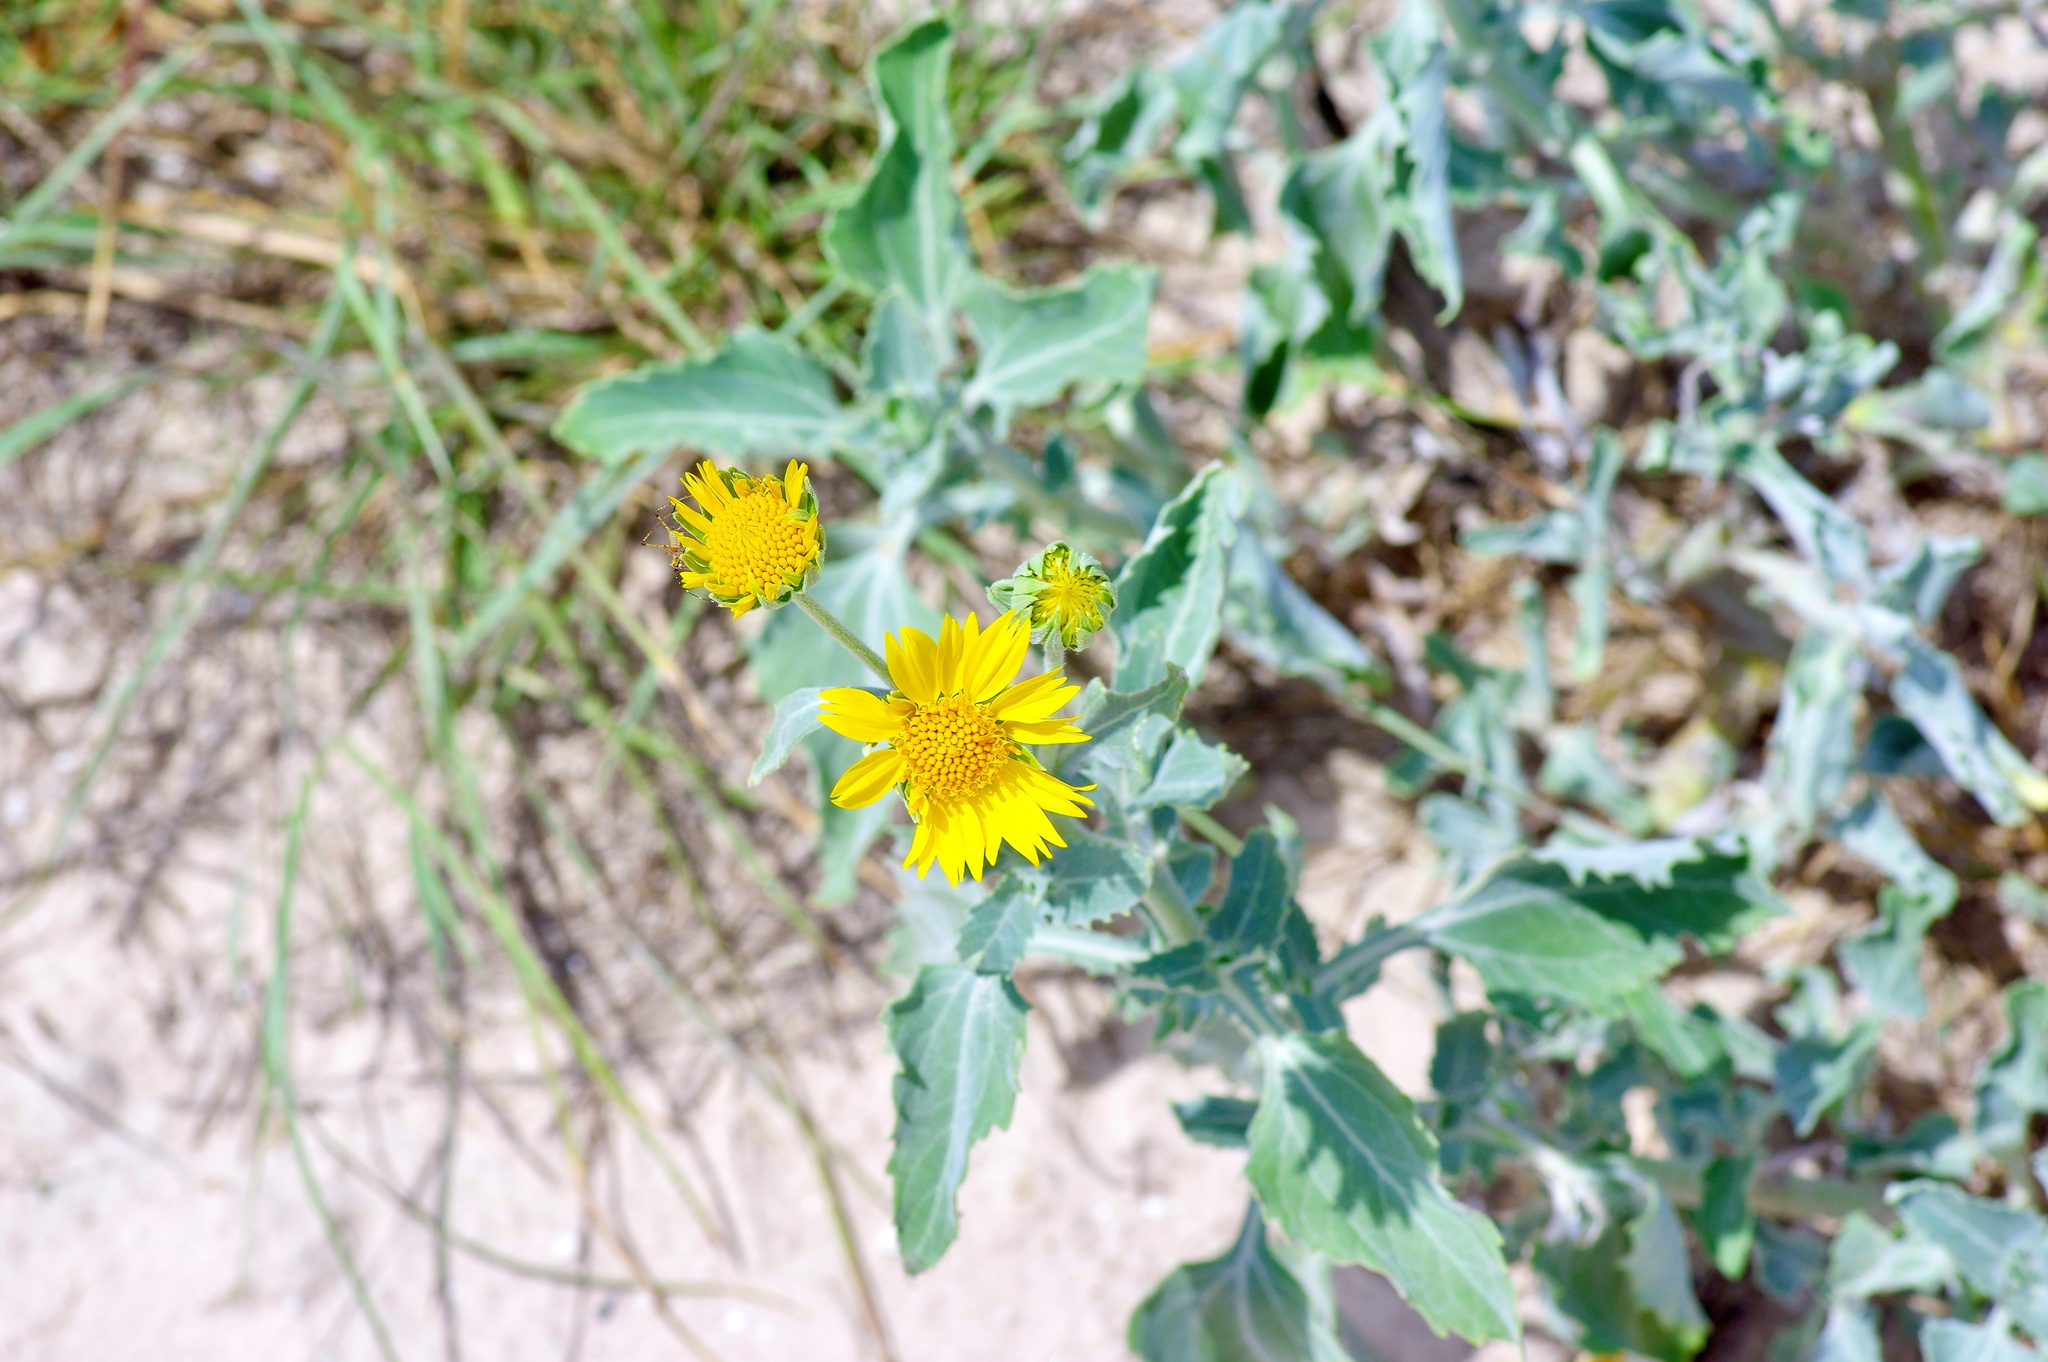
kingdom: Plantae
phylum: Tracheophyta
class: Magnoliopsida
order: Asterales
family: Asteraceae
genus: Verbesina
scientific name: Verbesina encelioides
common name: Golden crownbeard
